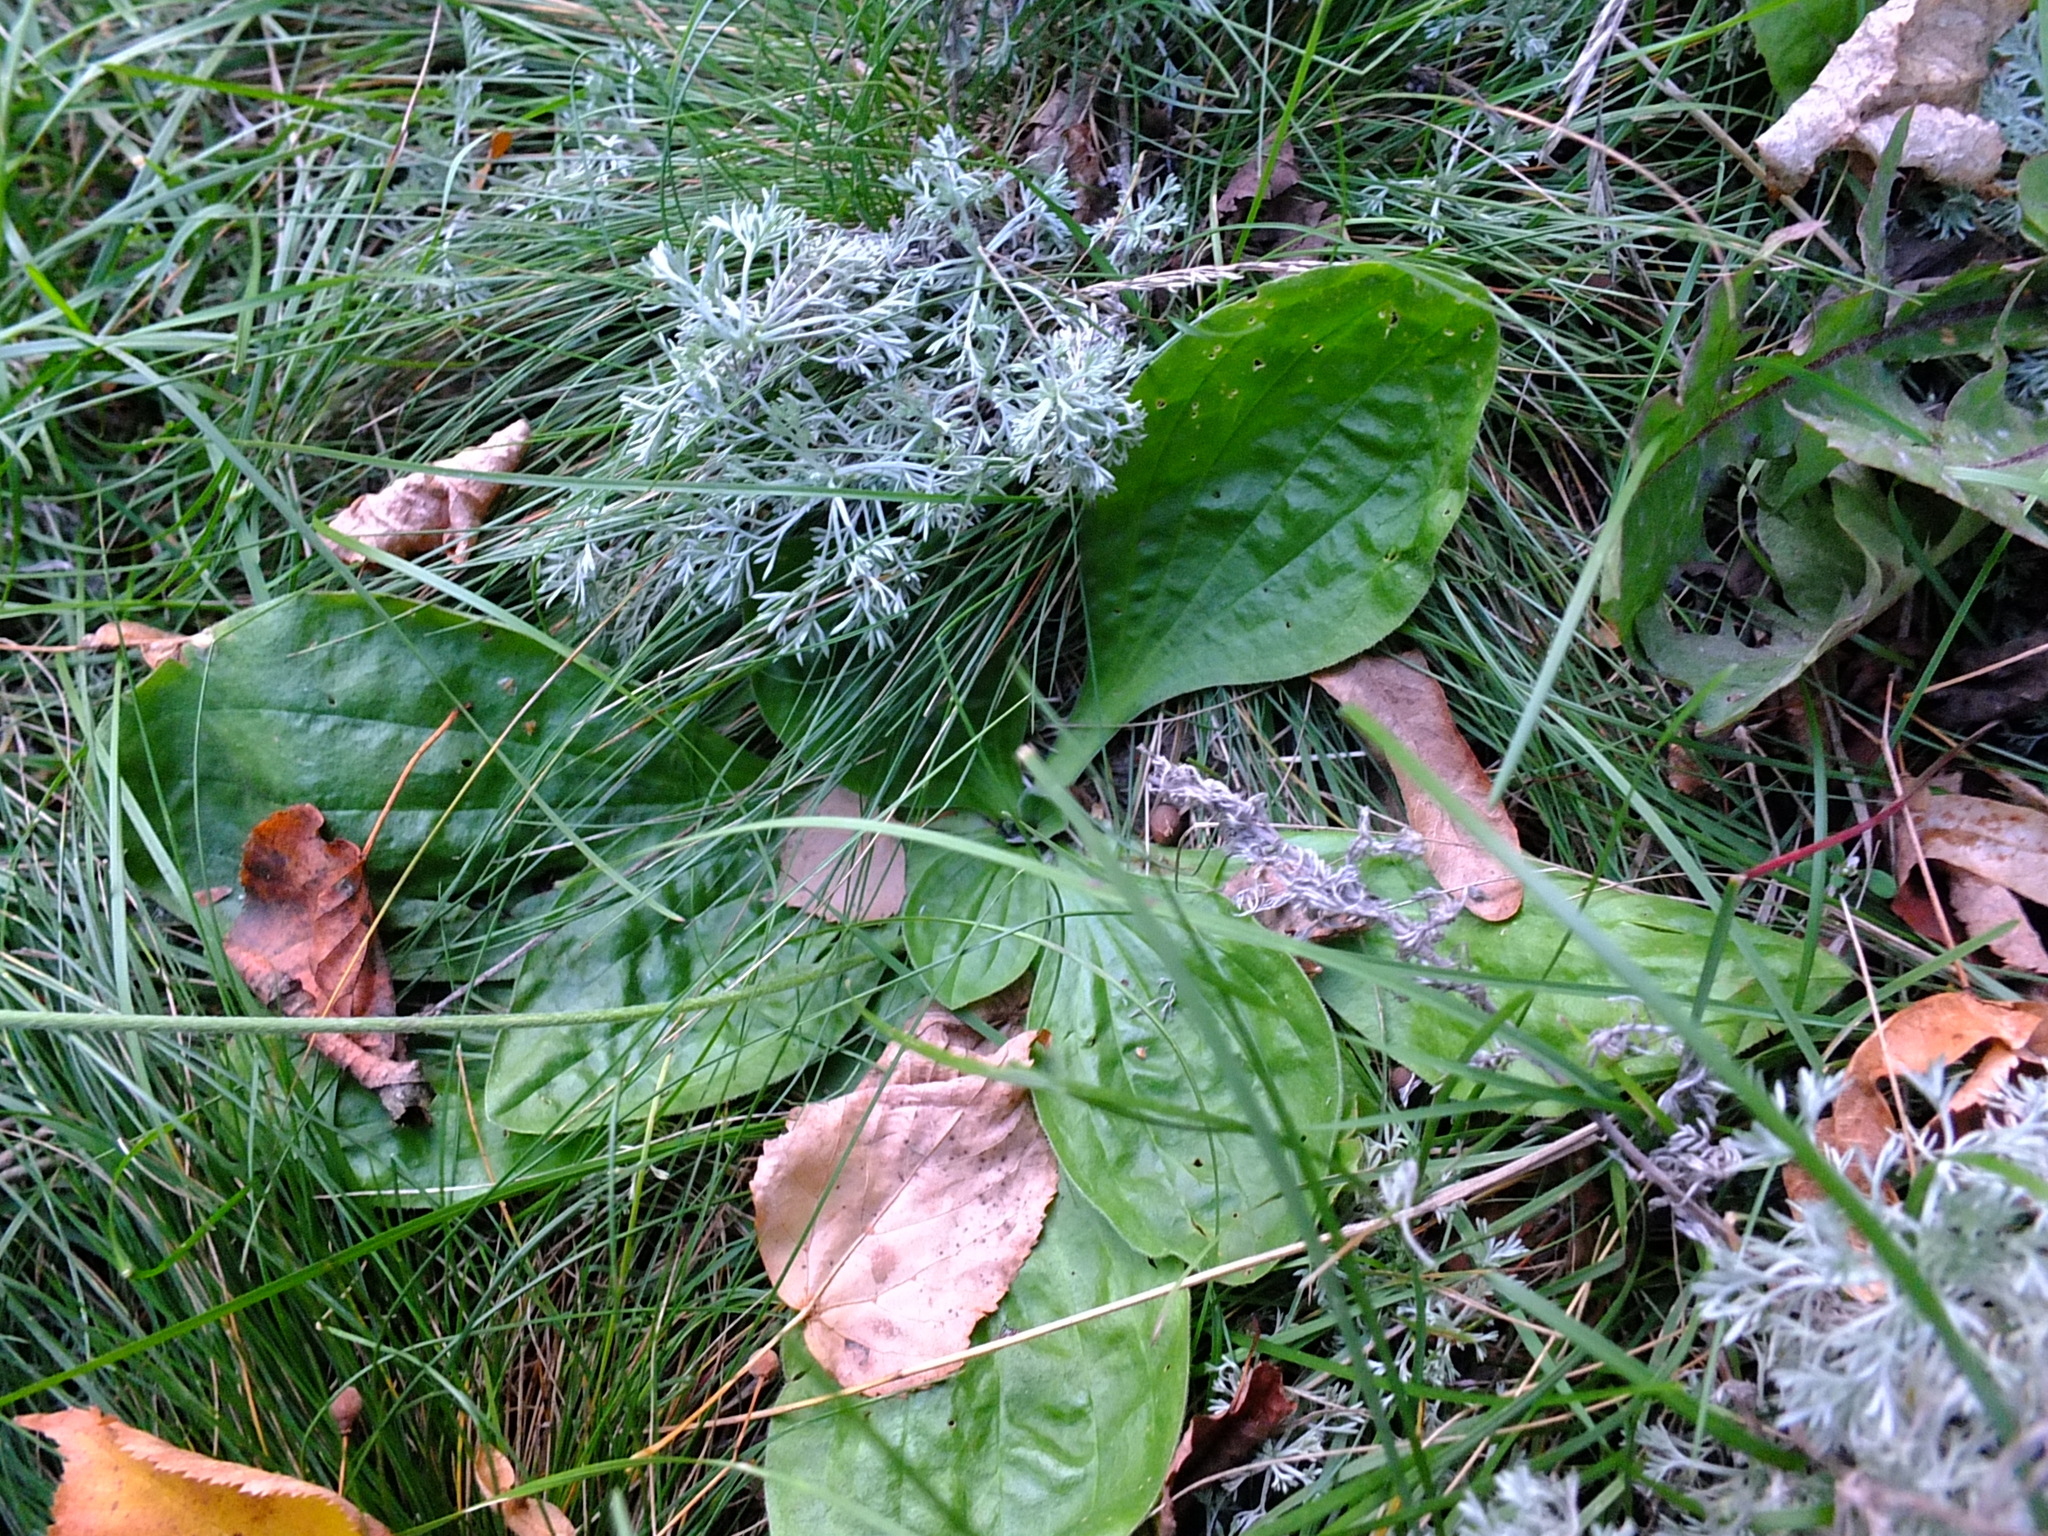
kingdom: Plantae
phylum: Tracheophyta
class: Magnoliopsida
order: Lamiales
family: Plantaginaceae
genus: Plantago
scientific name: Plantago media
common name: Hoary plantain
